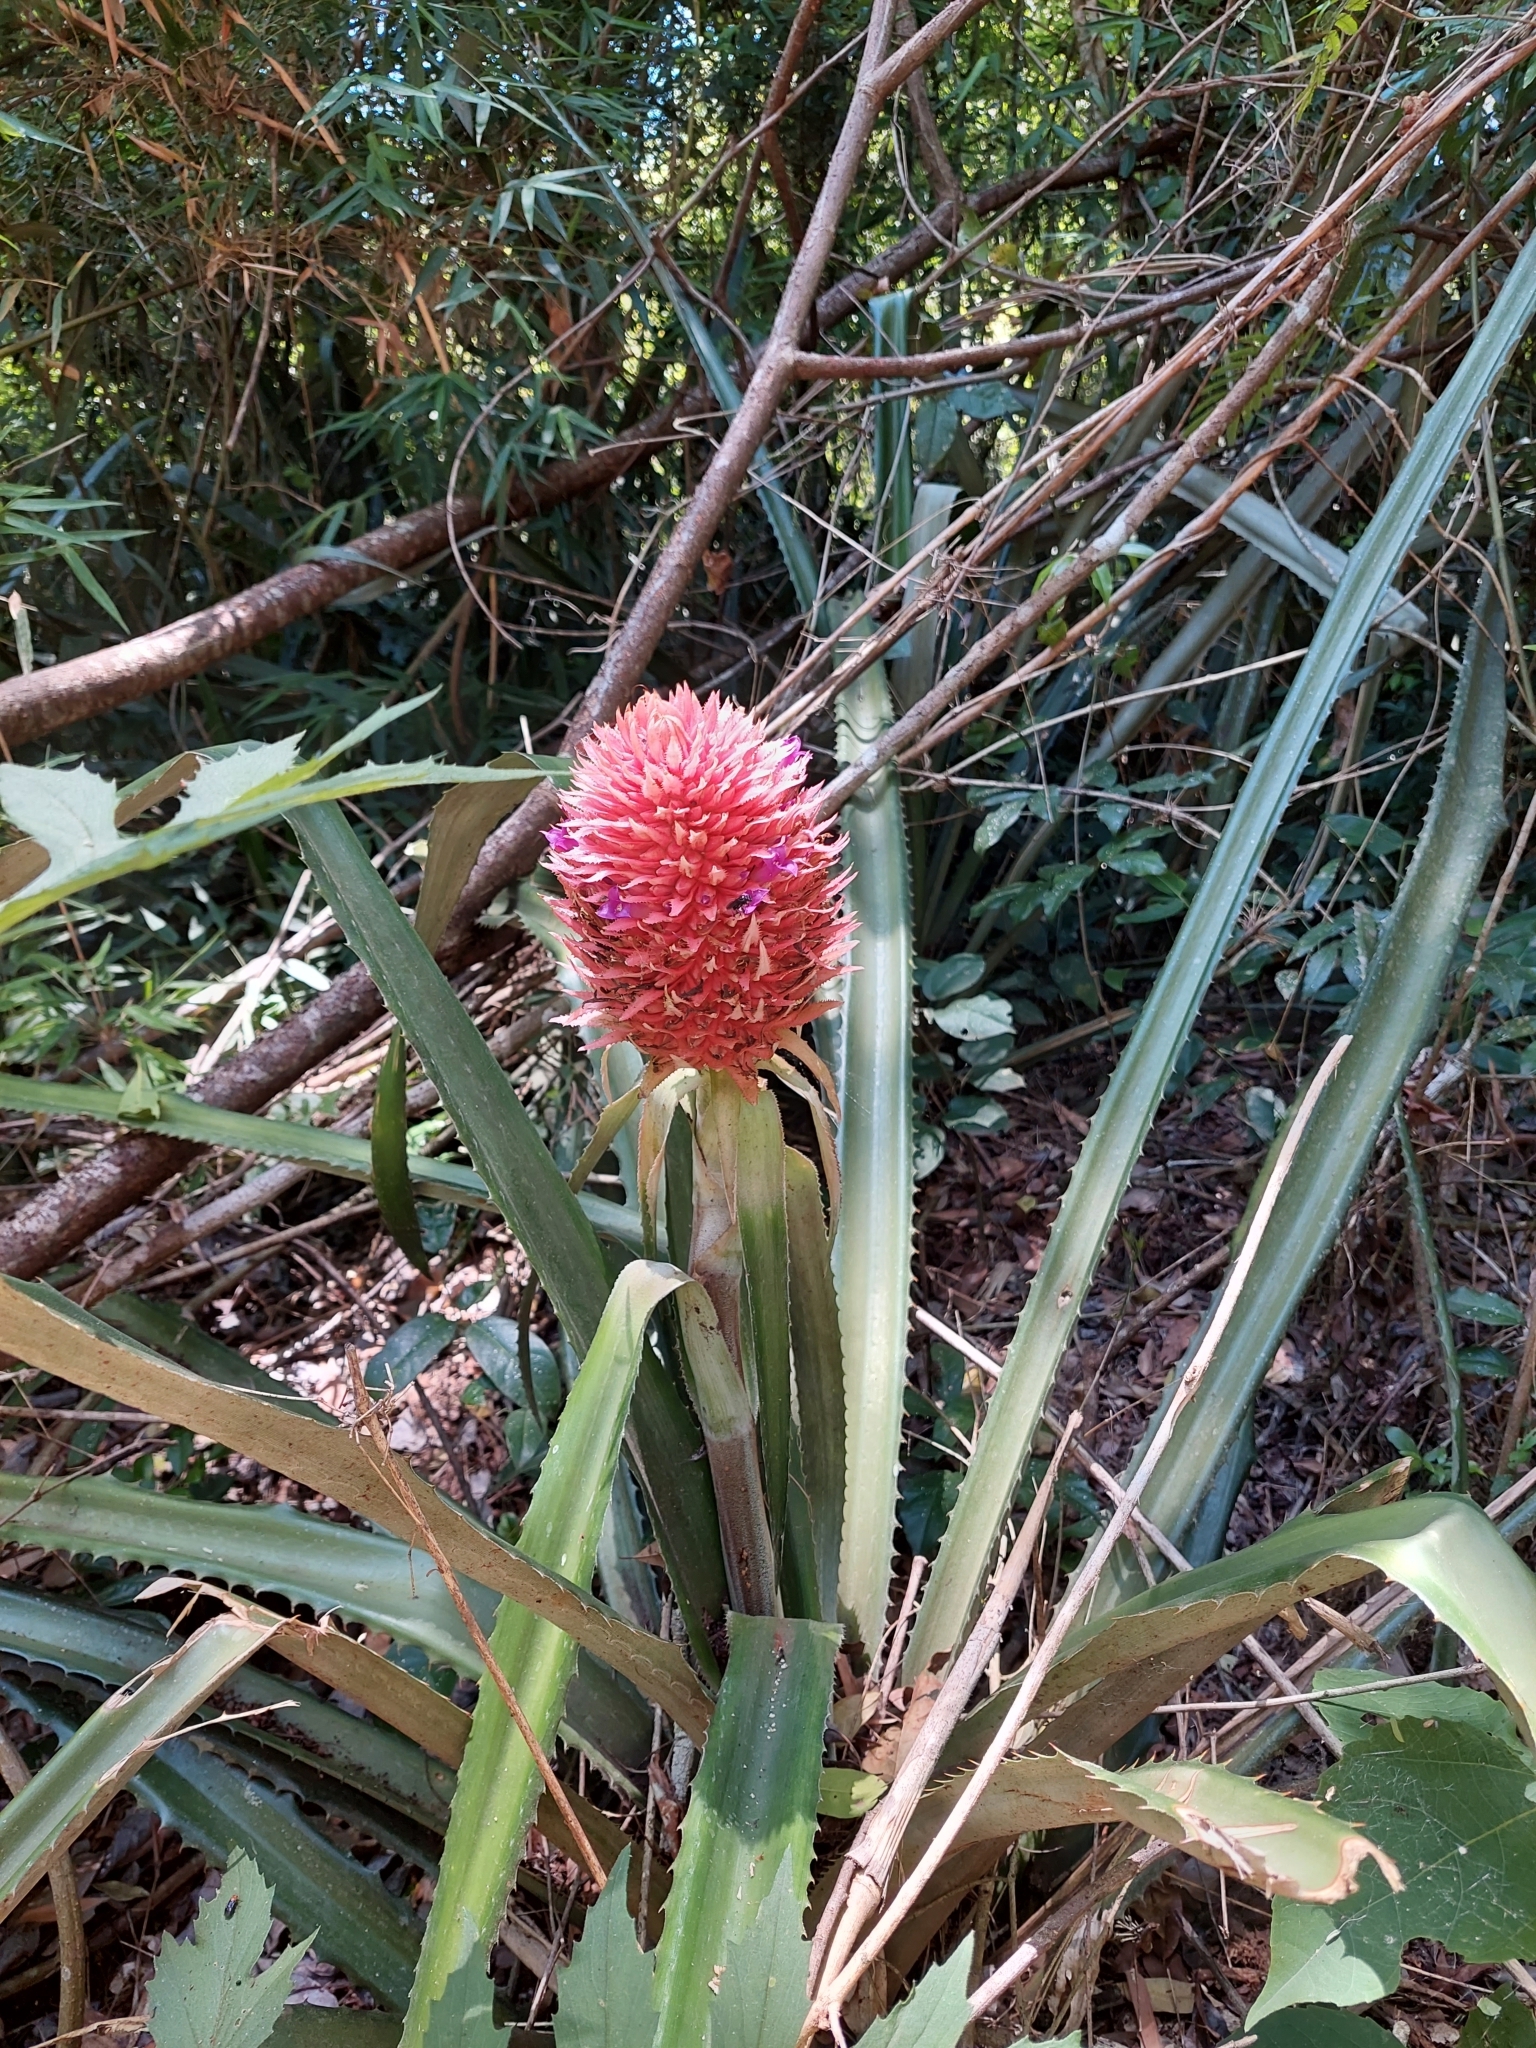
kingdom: Plantae
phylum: Tracheophyta
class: Liliopsida
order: Poales
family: Bromeliaceae
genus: Ananas
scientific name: Ananas macrodontes
